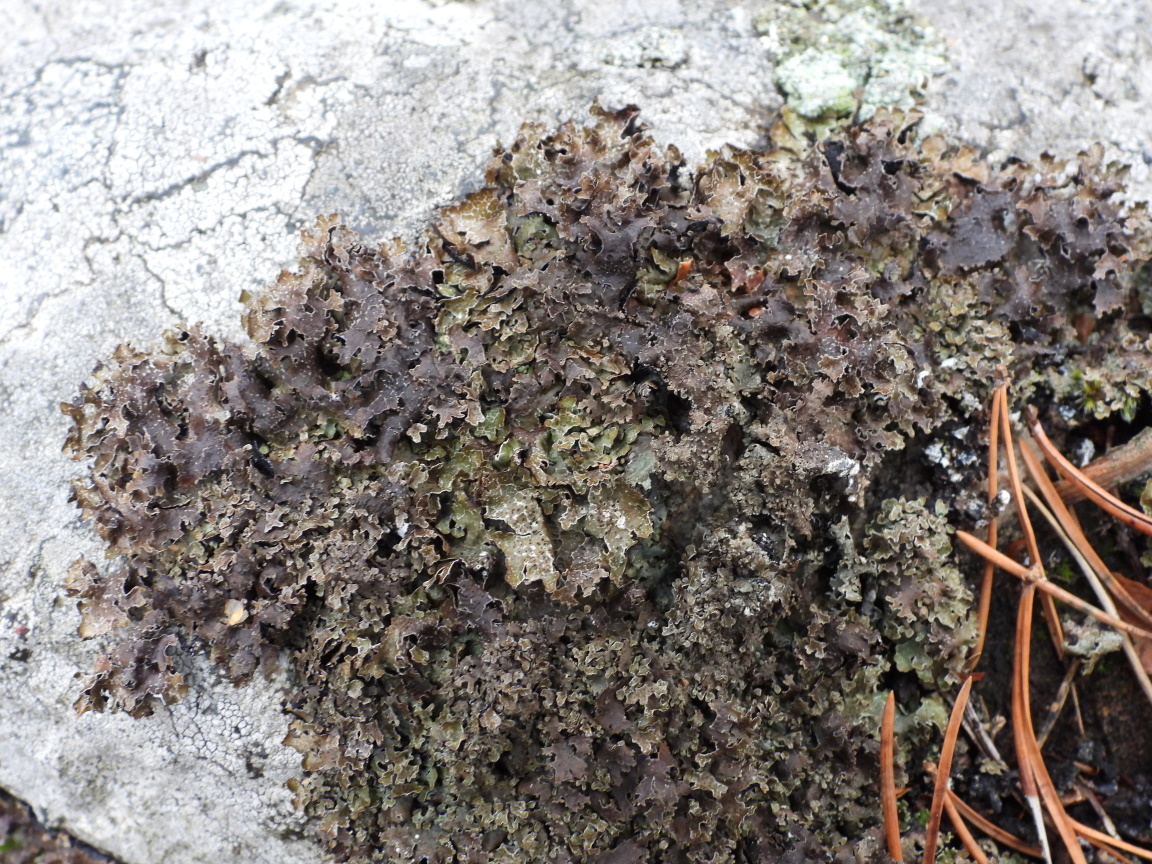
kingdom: Fungi
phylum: Ascomycota
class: Lecanoromycetes
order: Lecanorales
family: Parmeliaceae
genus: Parmelia
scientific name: Parmelia omphalodes
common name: Smoky crottle
